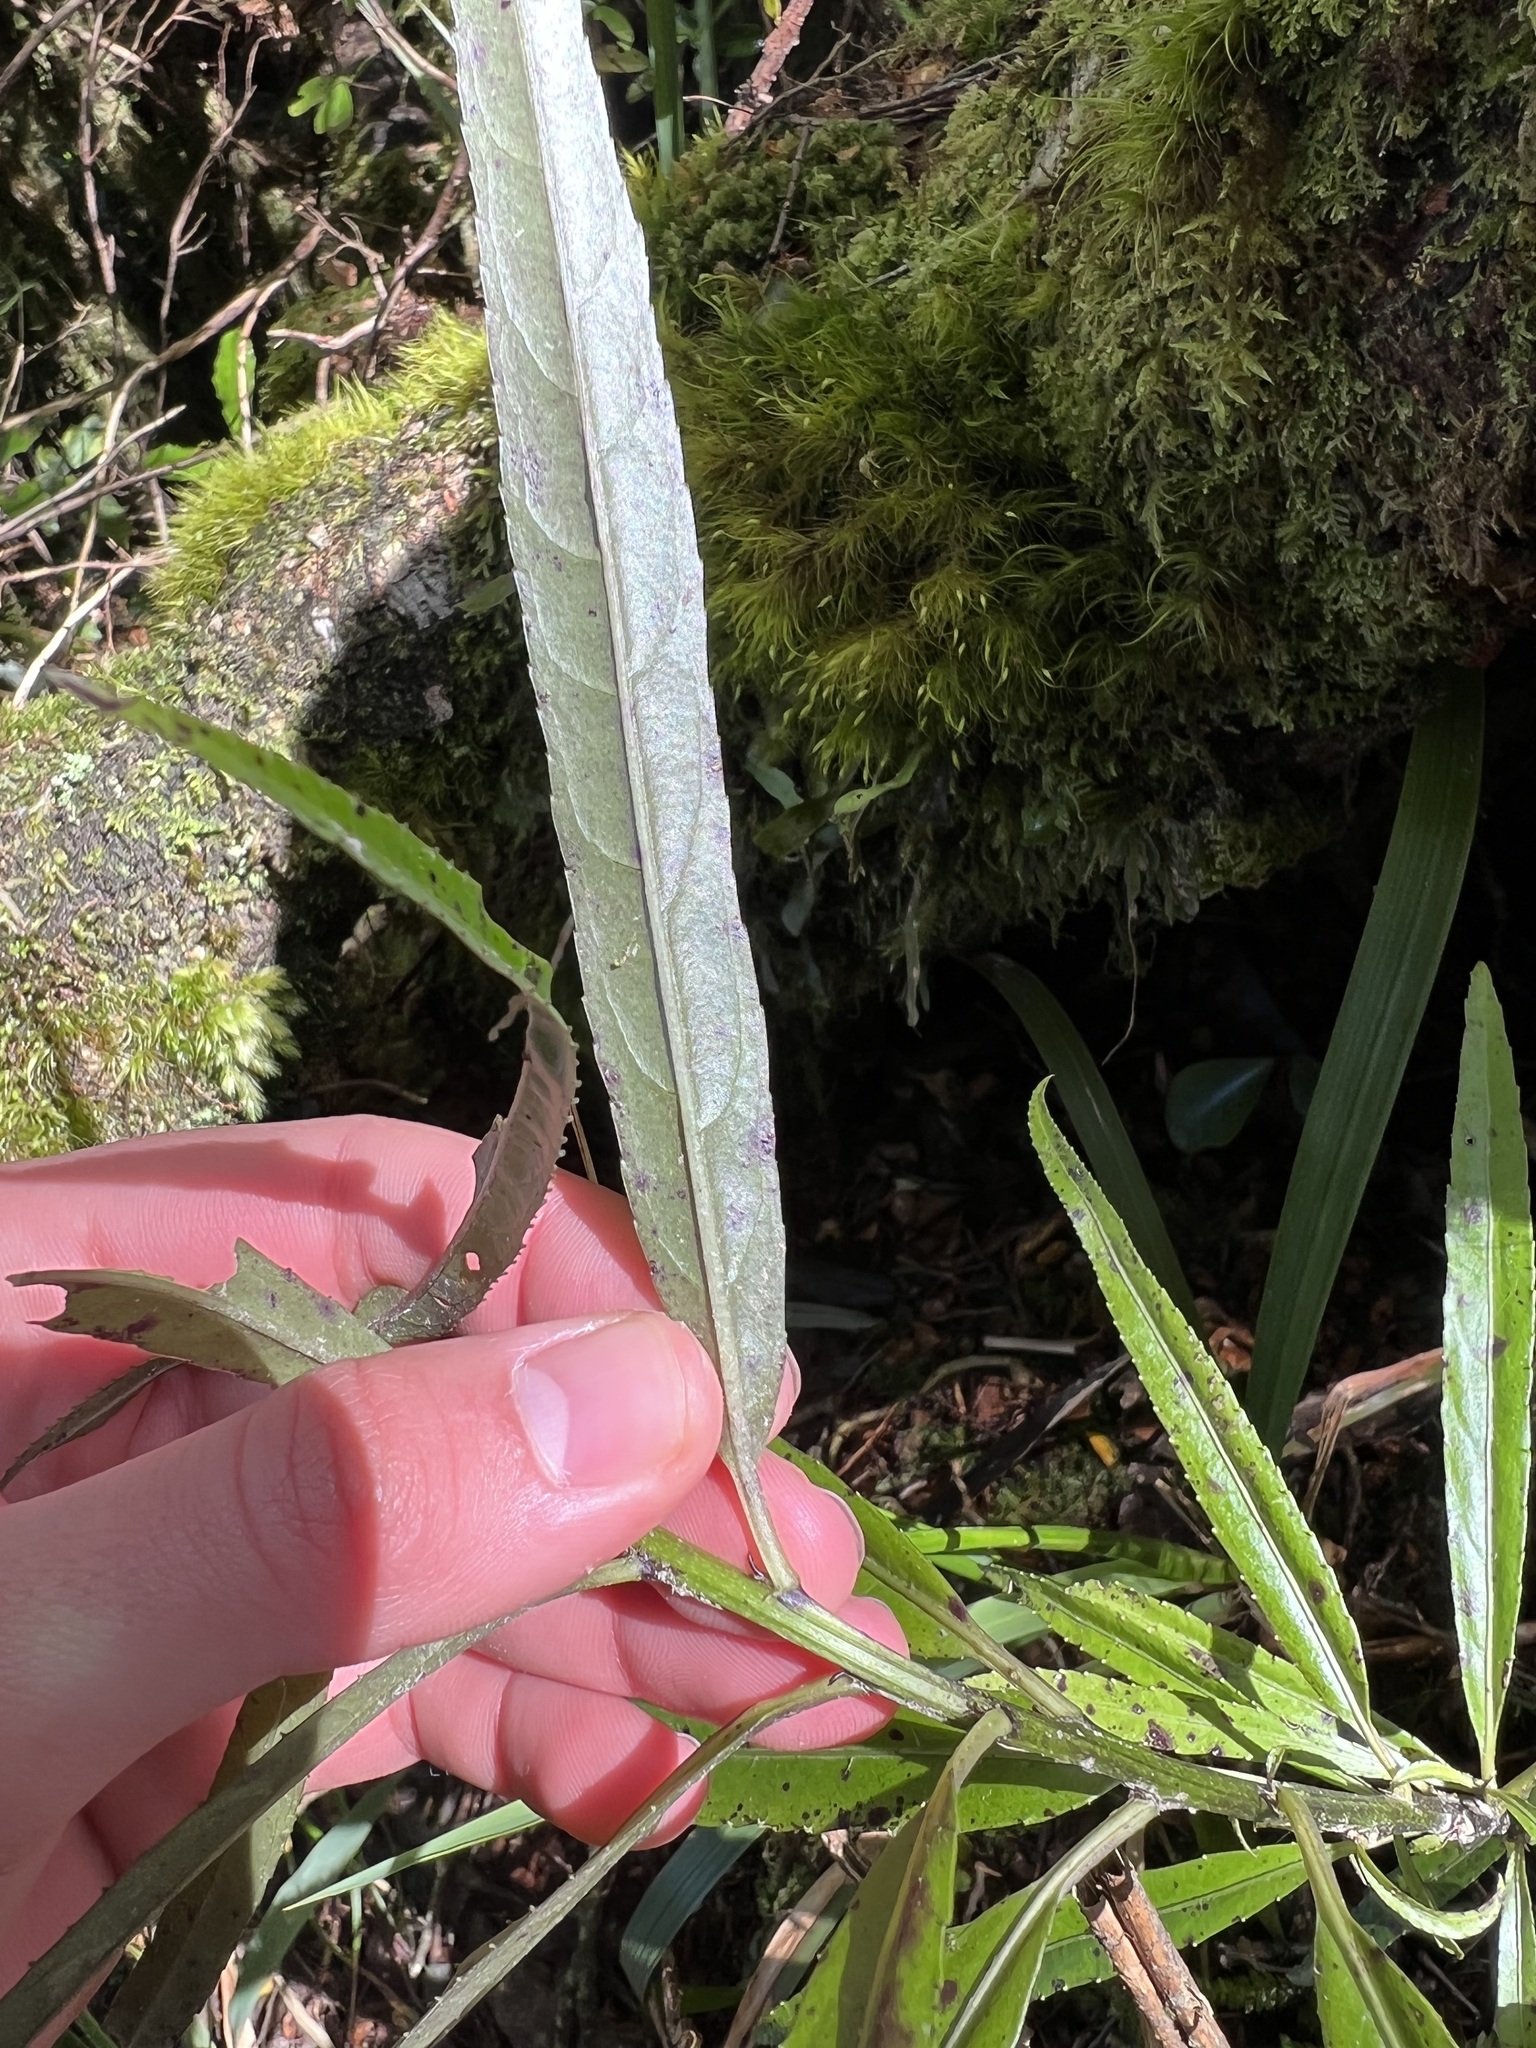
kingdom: Plantae
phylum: Tracheophyta
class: Magnoliopsida
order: Malpighiales
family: Violaceae
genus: Melicytus
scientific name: Melicytus lanceolatus
